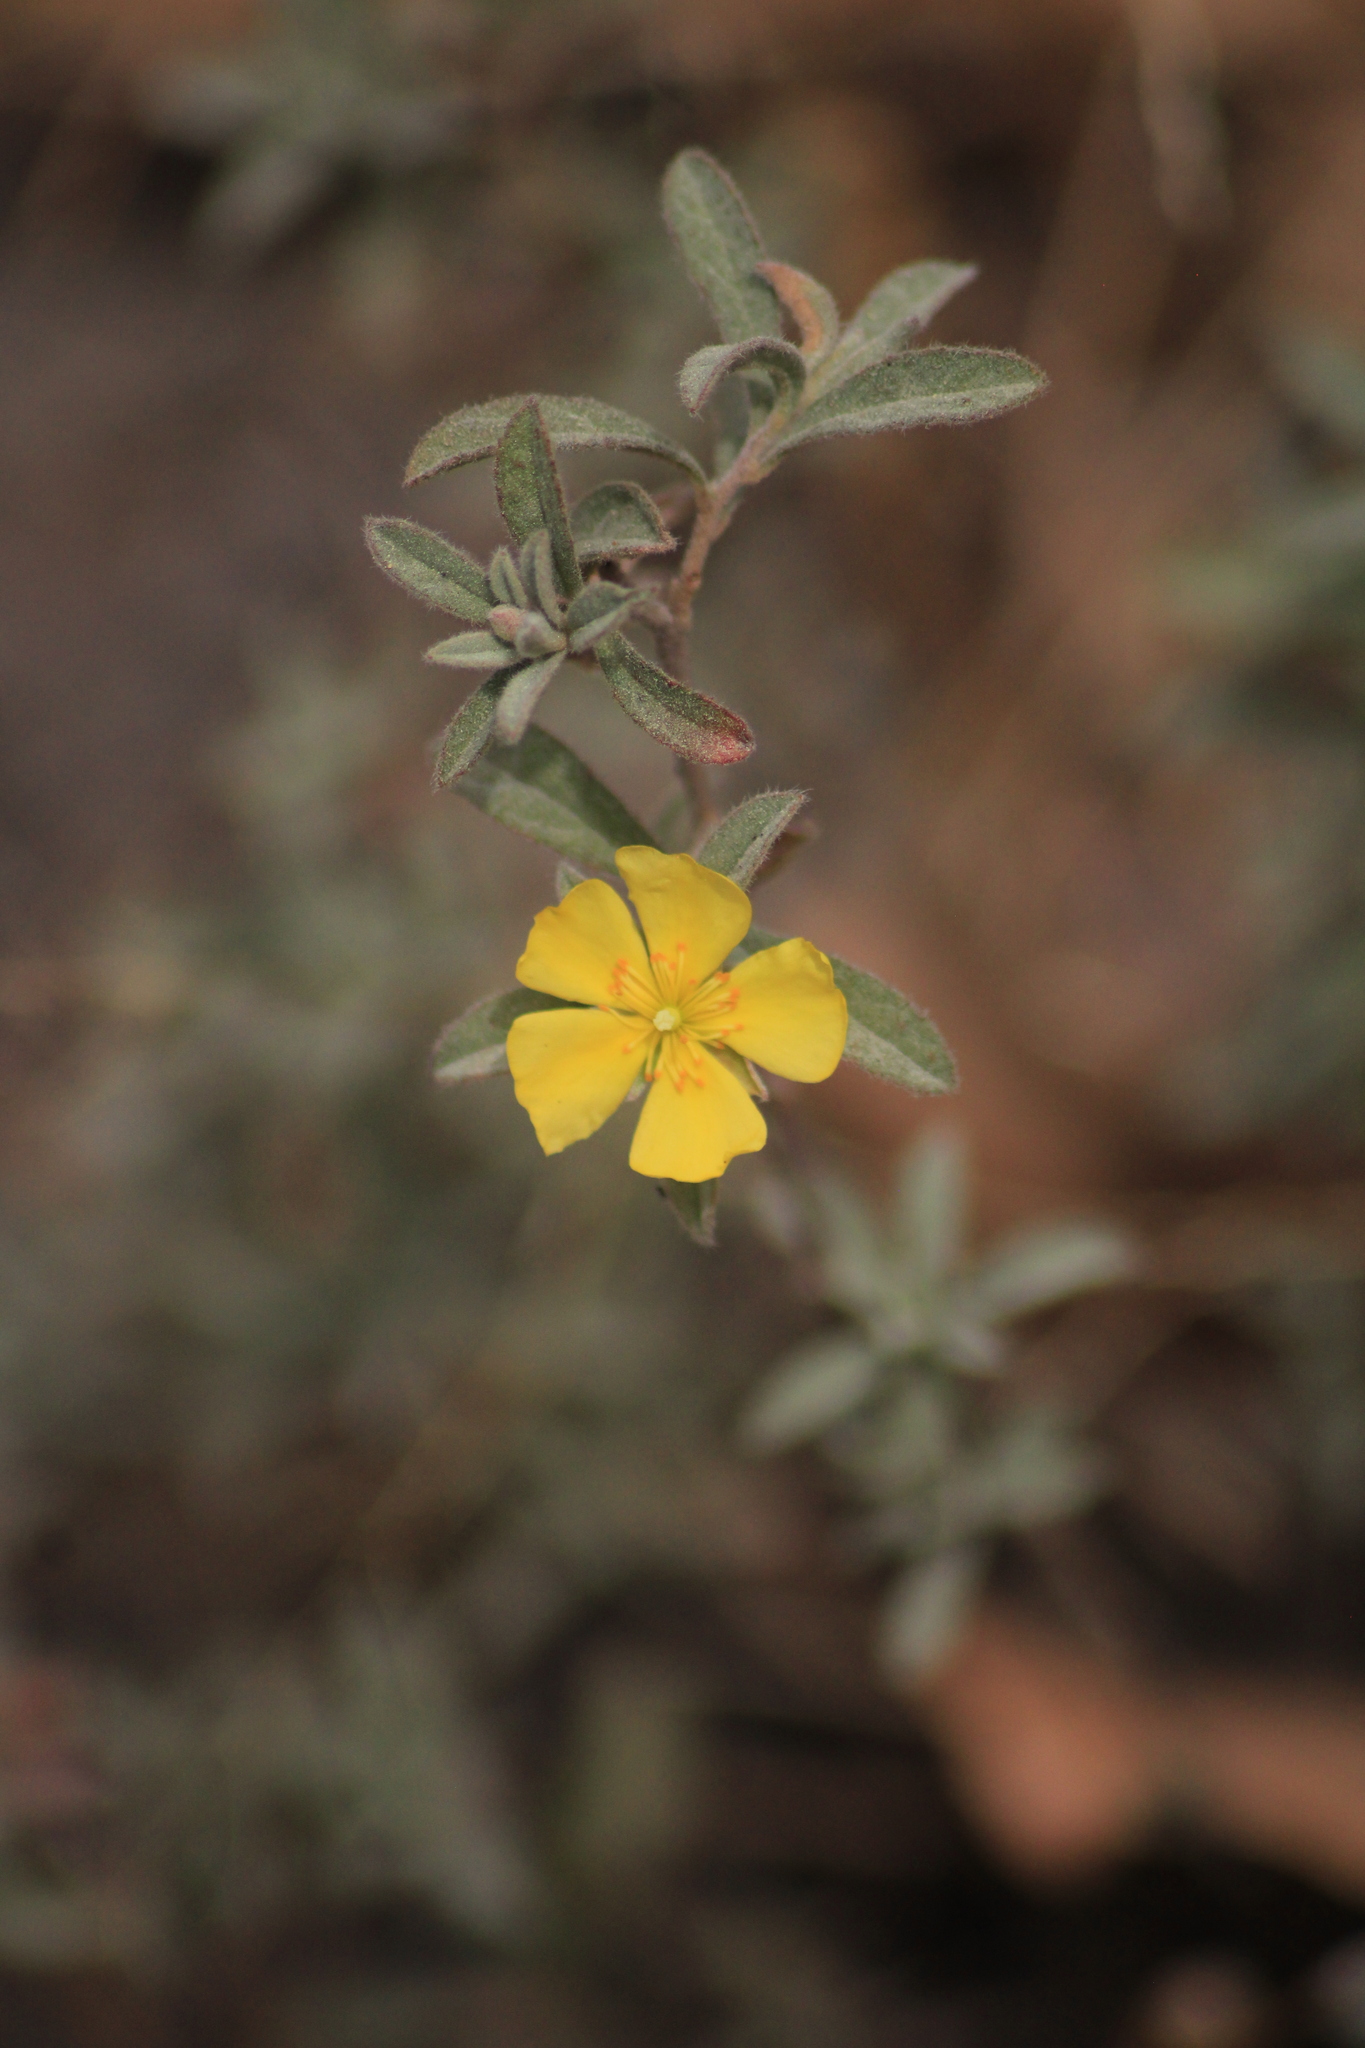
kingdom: Plantae
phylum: Tracheophyta
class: Magnoliopsida
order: Malvales
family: Cistaceae
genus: Crocanthemum
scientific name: Crocanthemum glomeratum
